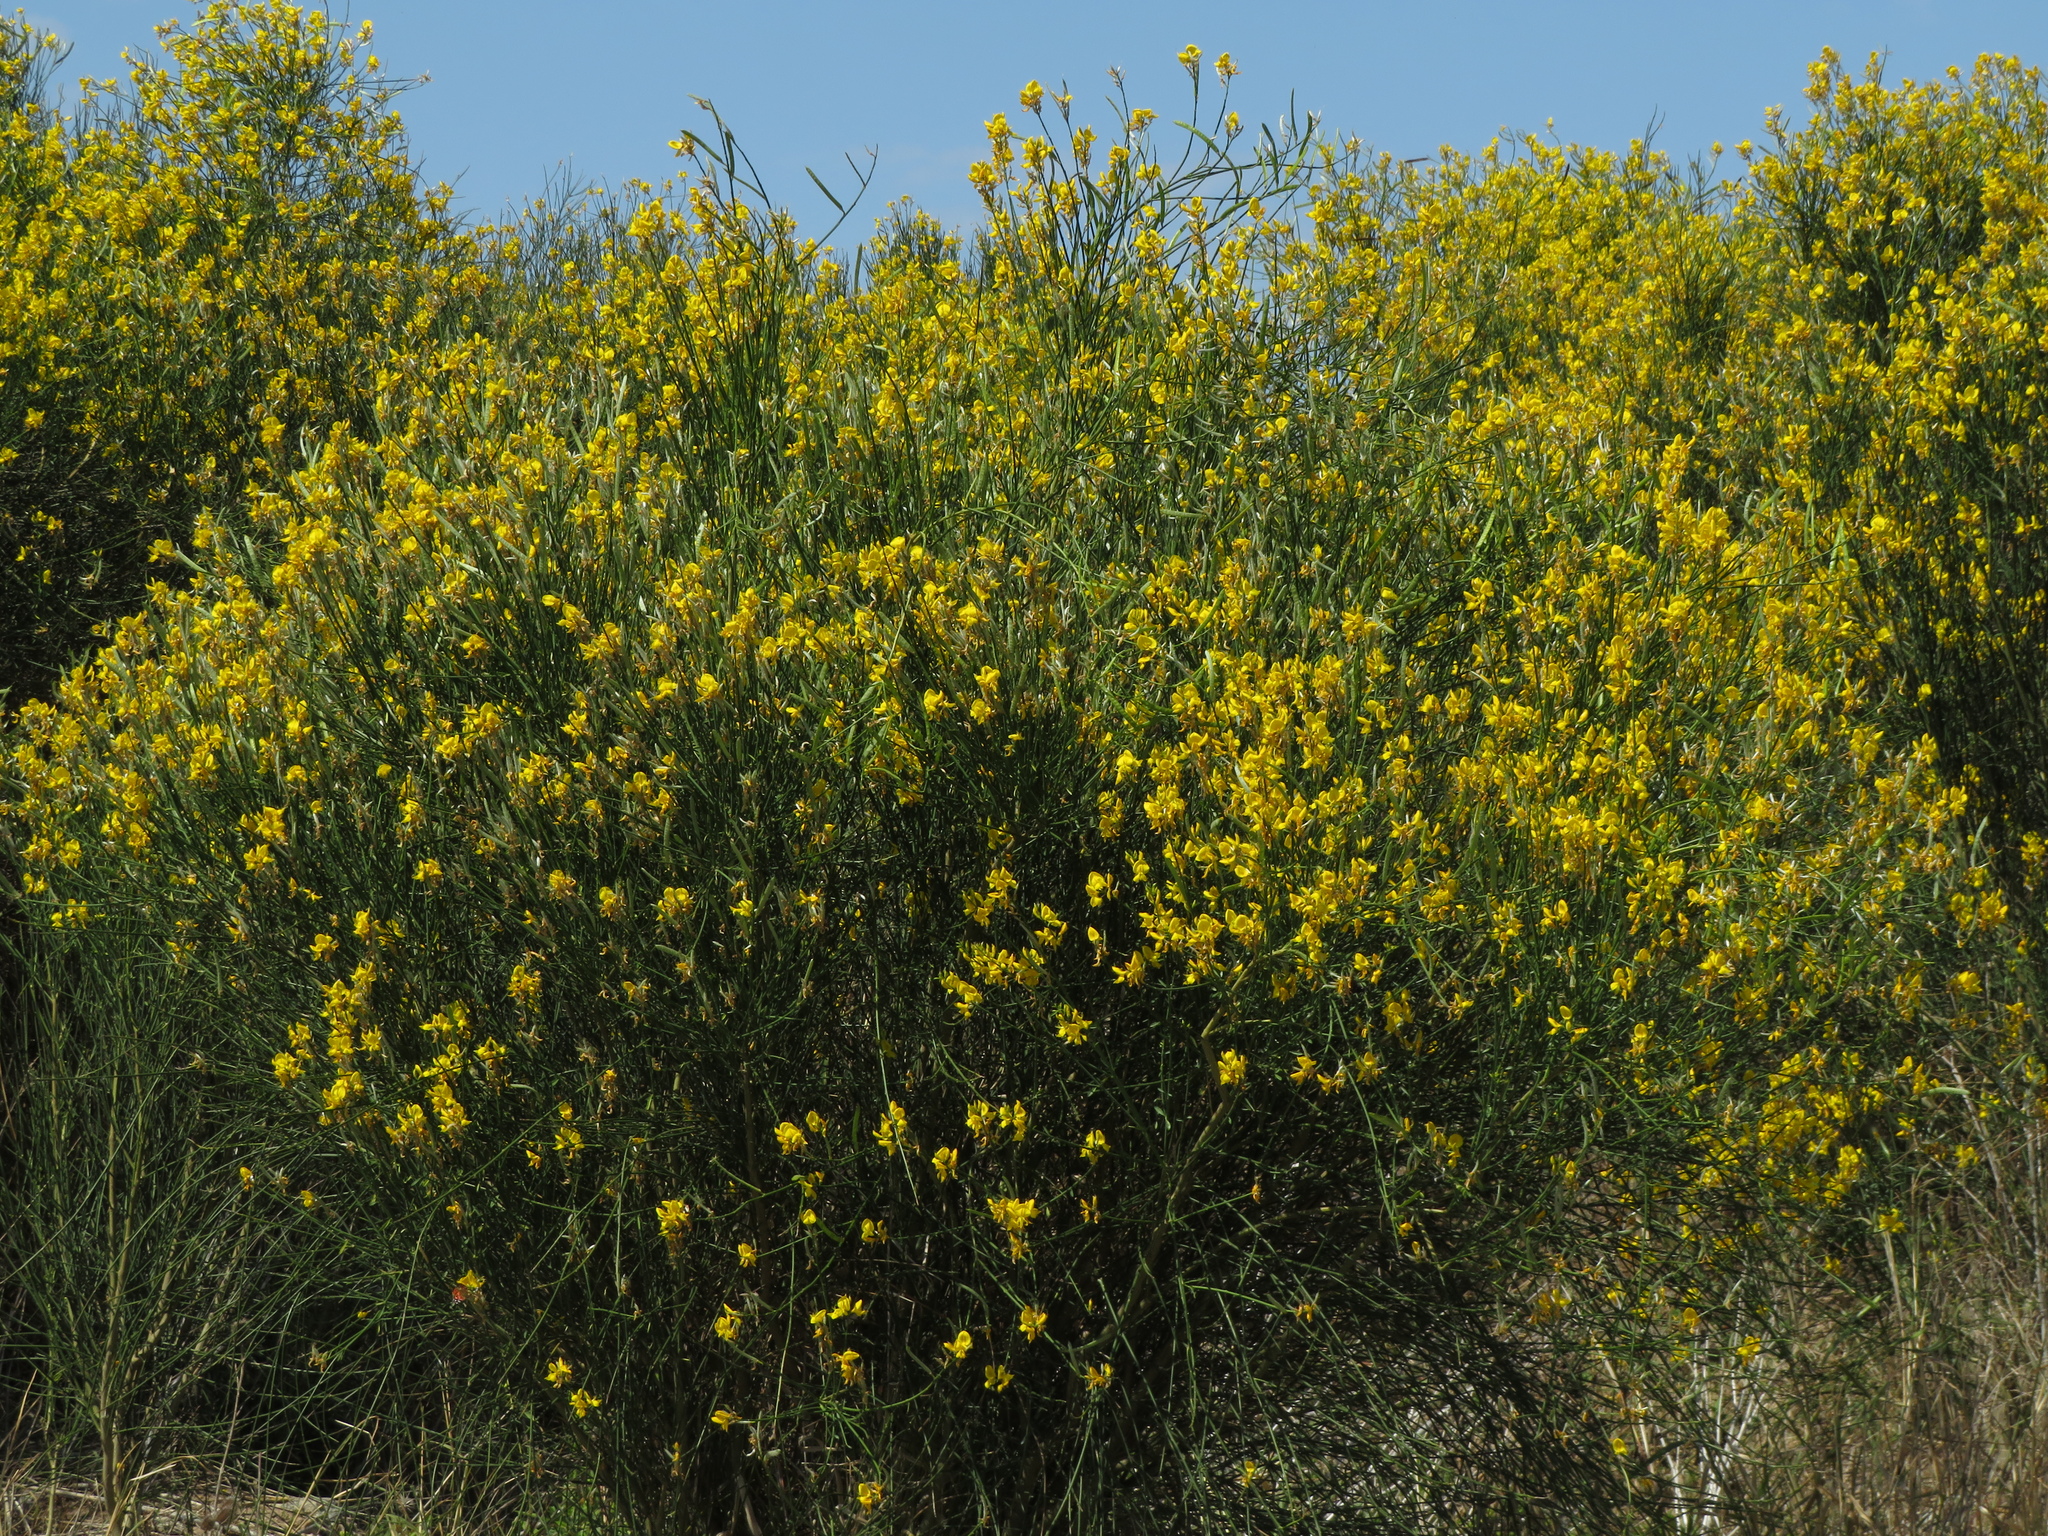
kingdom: Plantae
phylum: Tracheophyta
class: Magnoliopsida
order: Fabales
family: Fabaceae
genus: Spartium
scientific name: Spartium junceum
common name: Spanish broom
